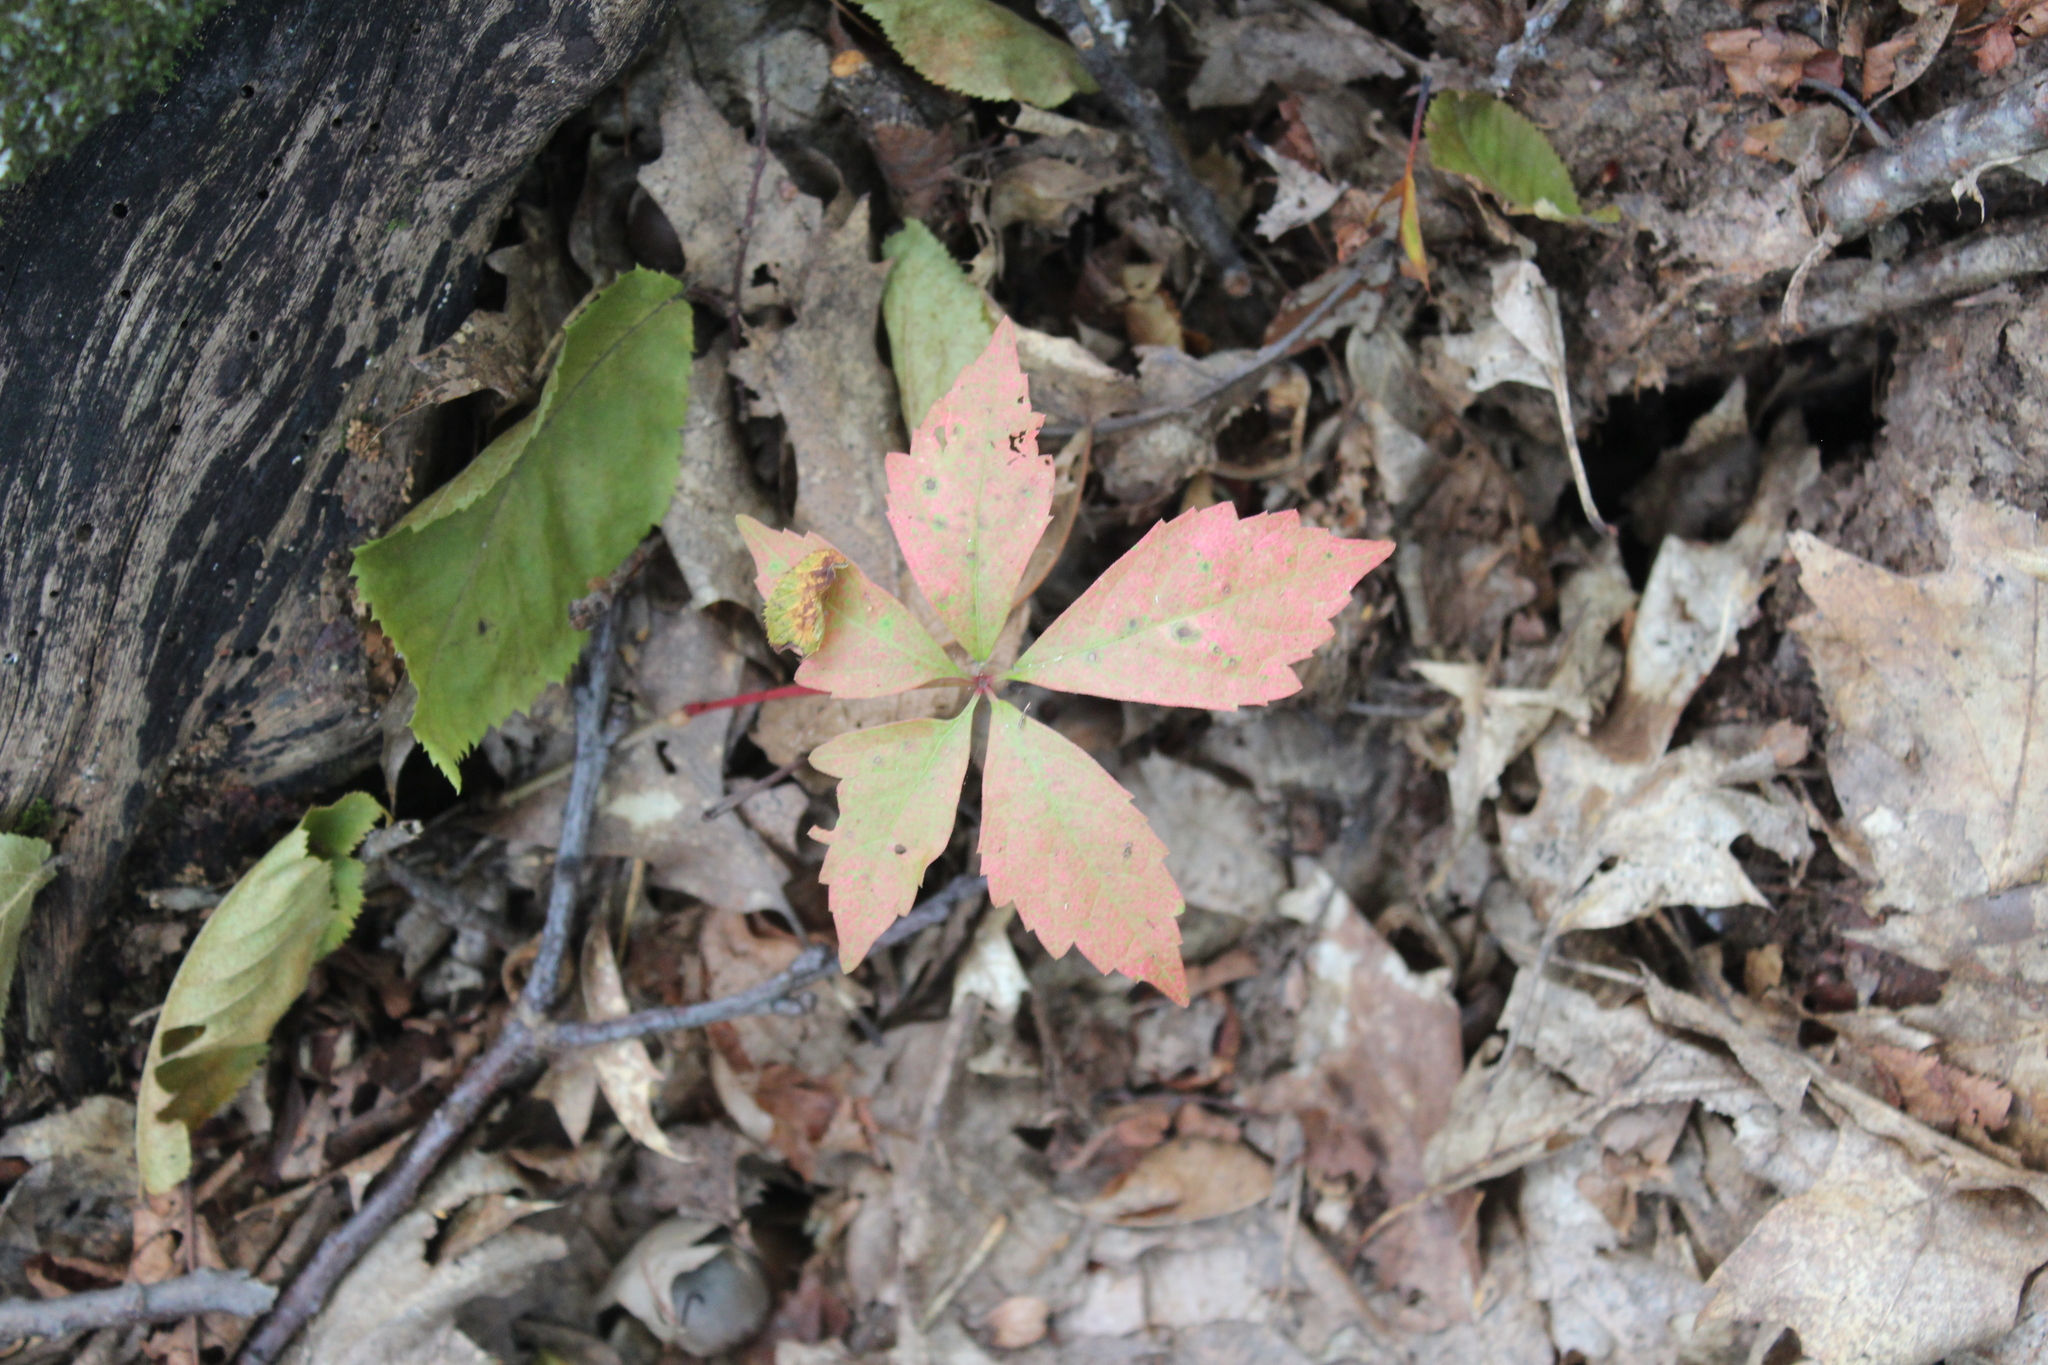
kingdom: Plantae
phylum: Tracheophyta
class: Magnoliopsida
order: Vitales
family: Vitaceae
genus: Parthenocissus
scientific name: Parthenocissus quinquefolia
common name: Virginia-creeper
